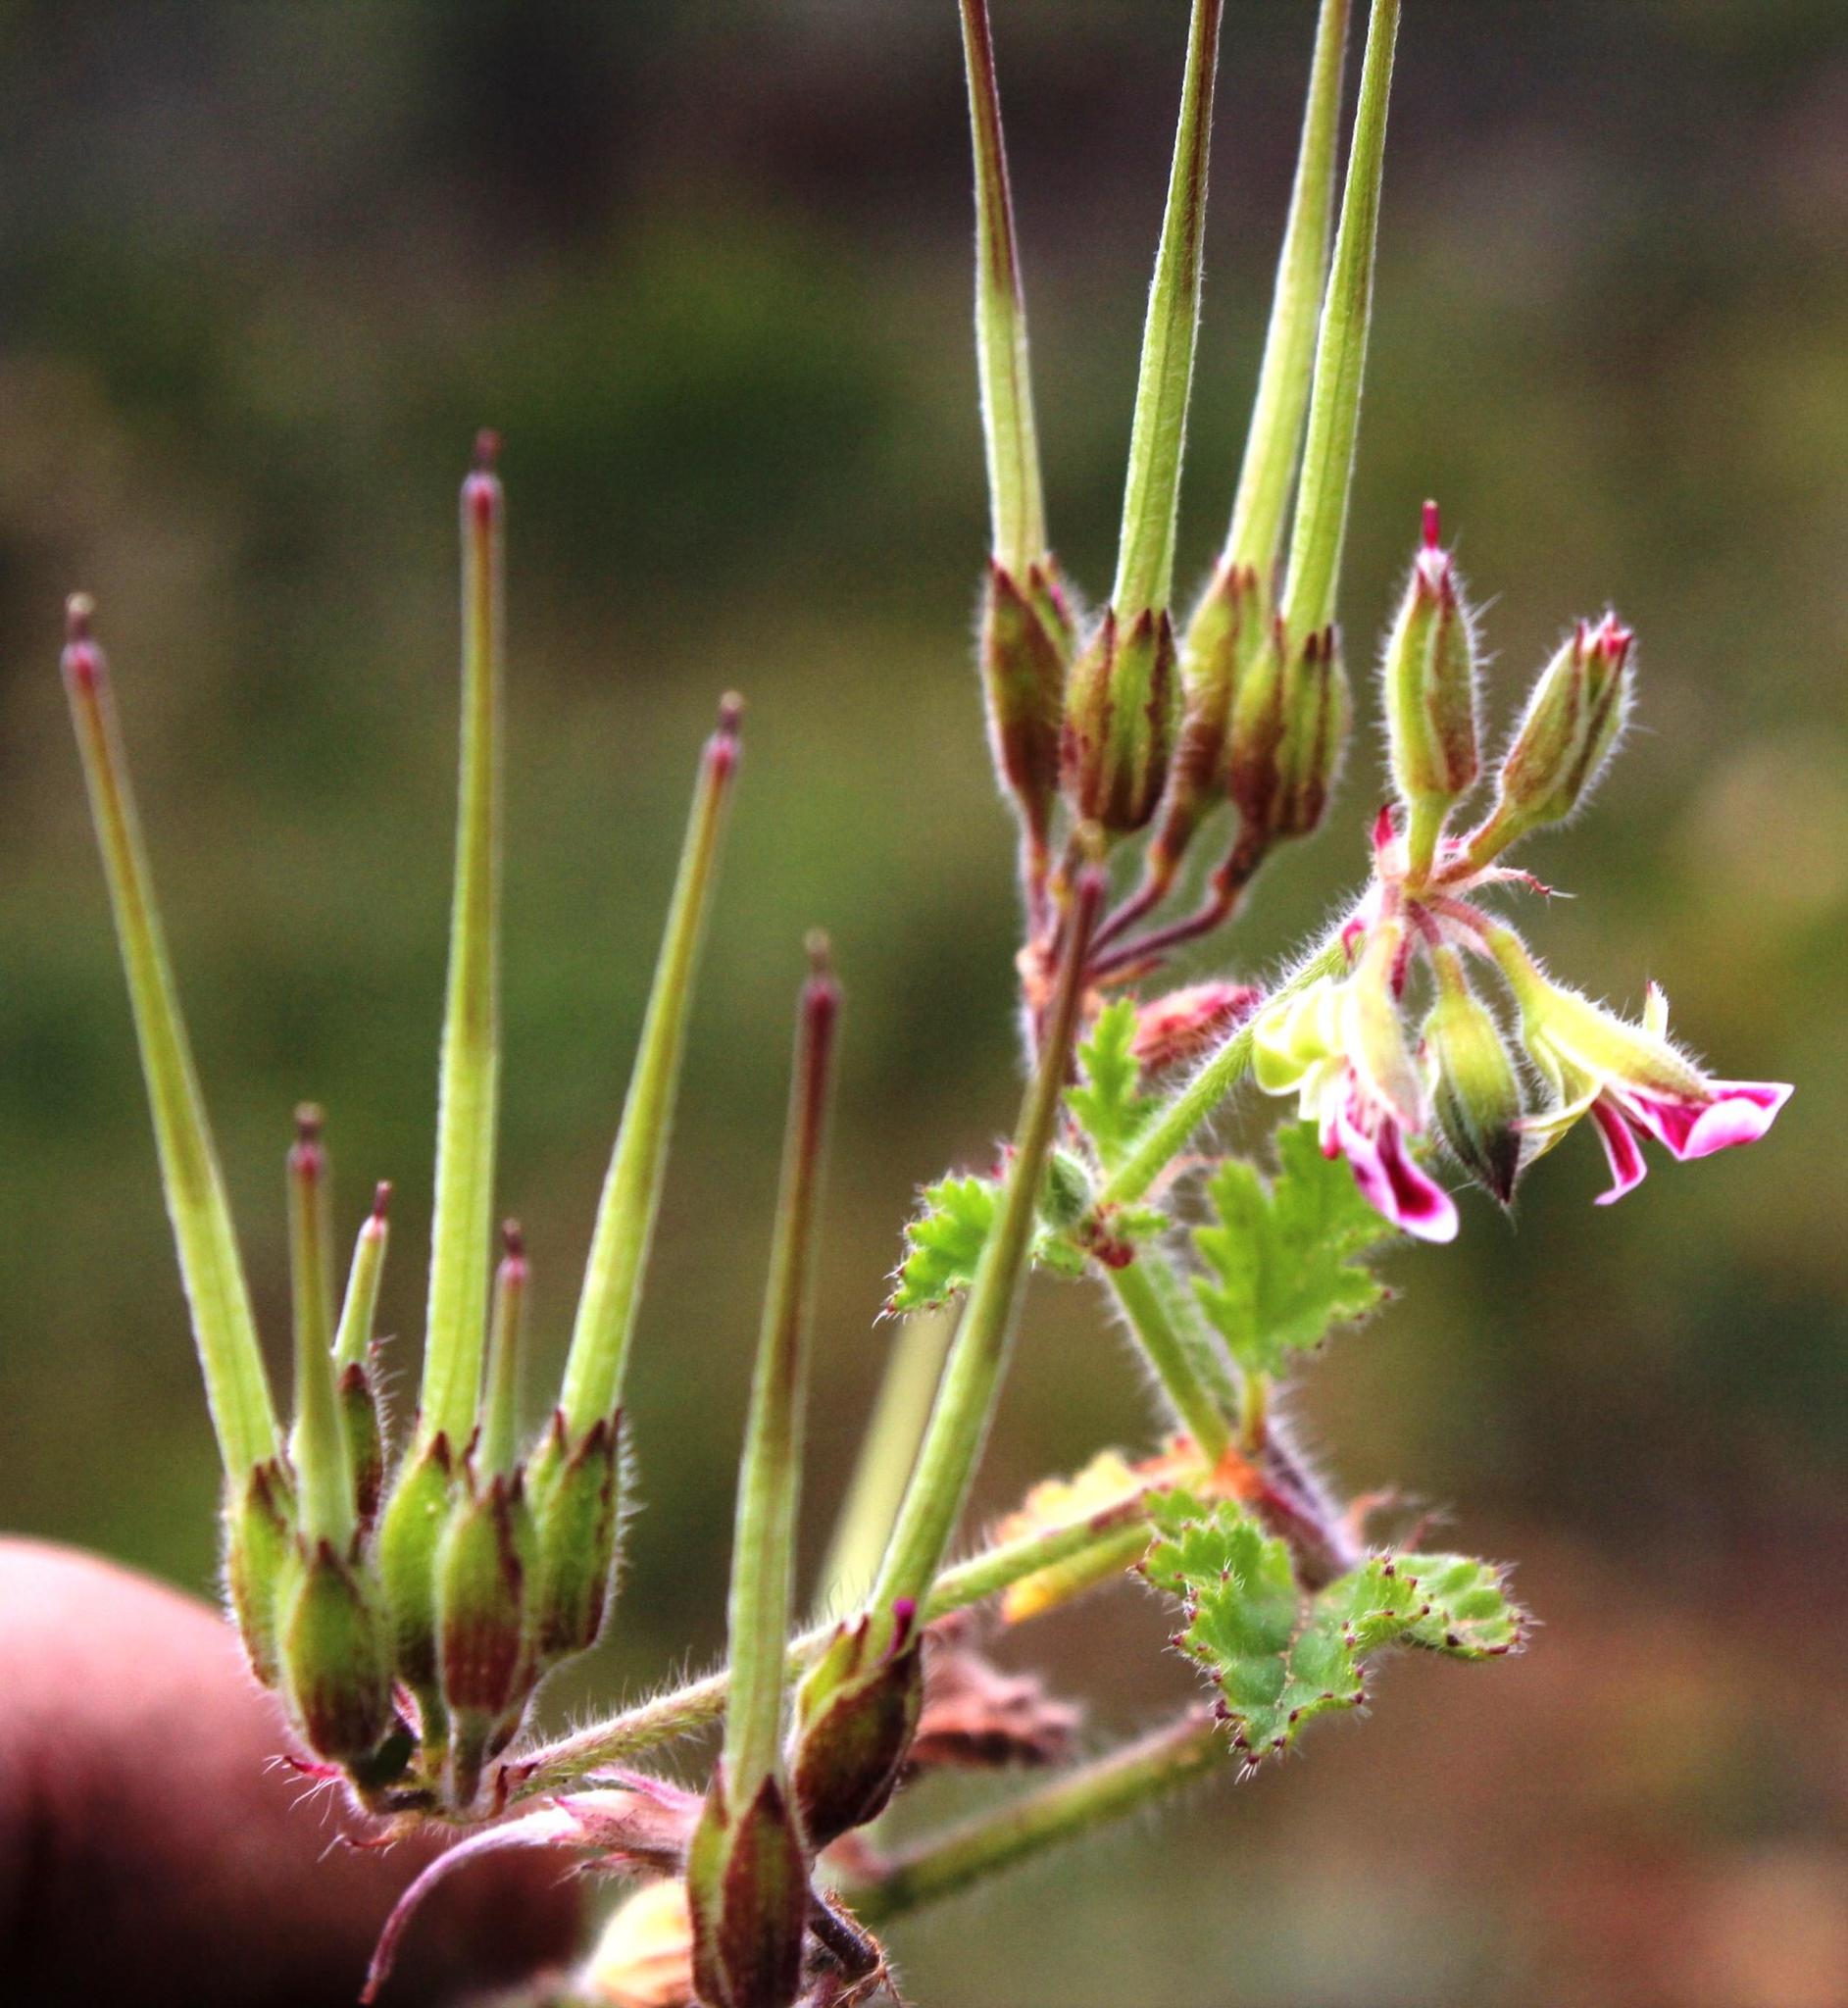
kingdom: Plantae
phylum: Tracheophyta
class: Magnoliopsida
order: Geraniales
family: Geraniaceae
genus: Pelargonium
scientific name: Pelargonium althaeoides
